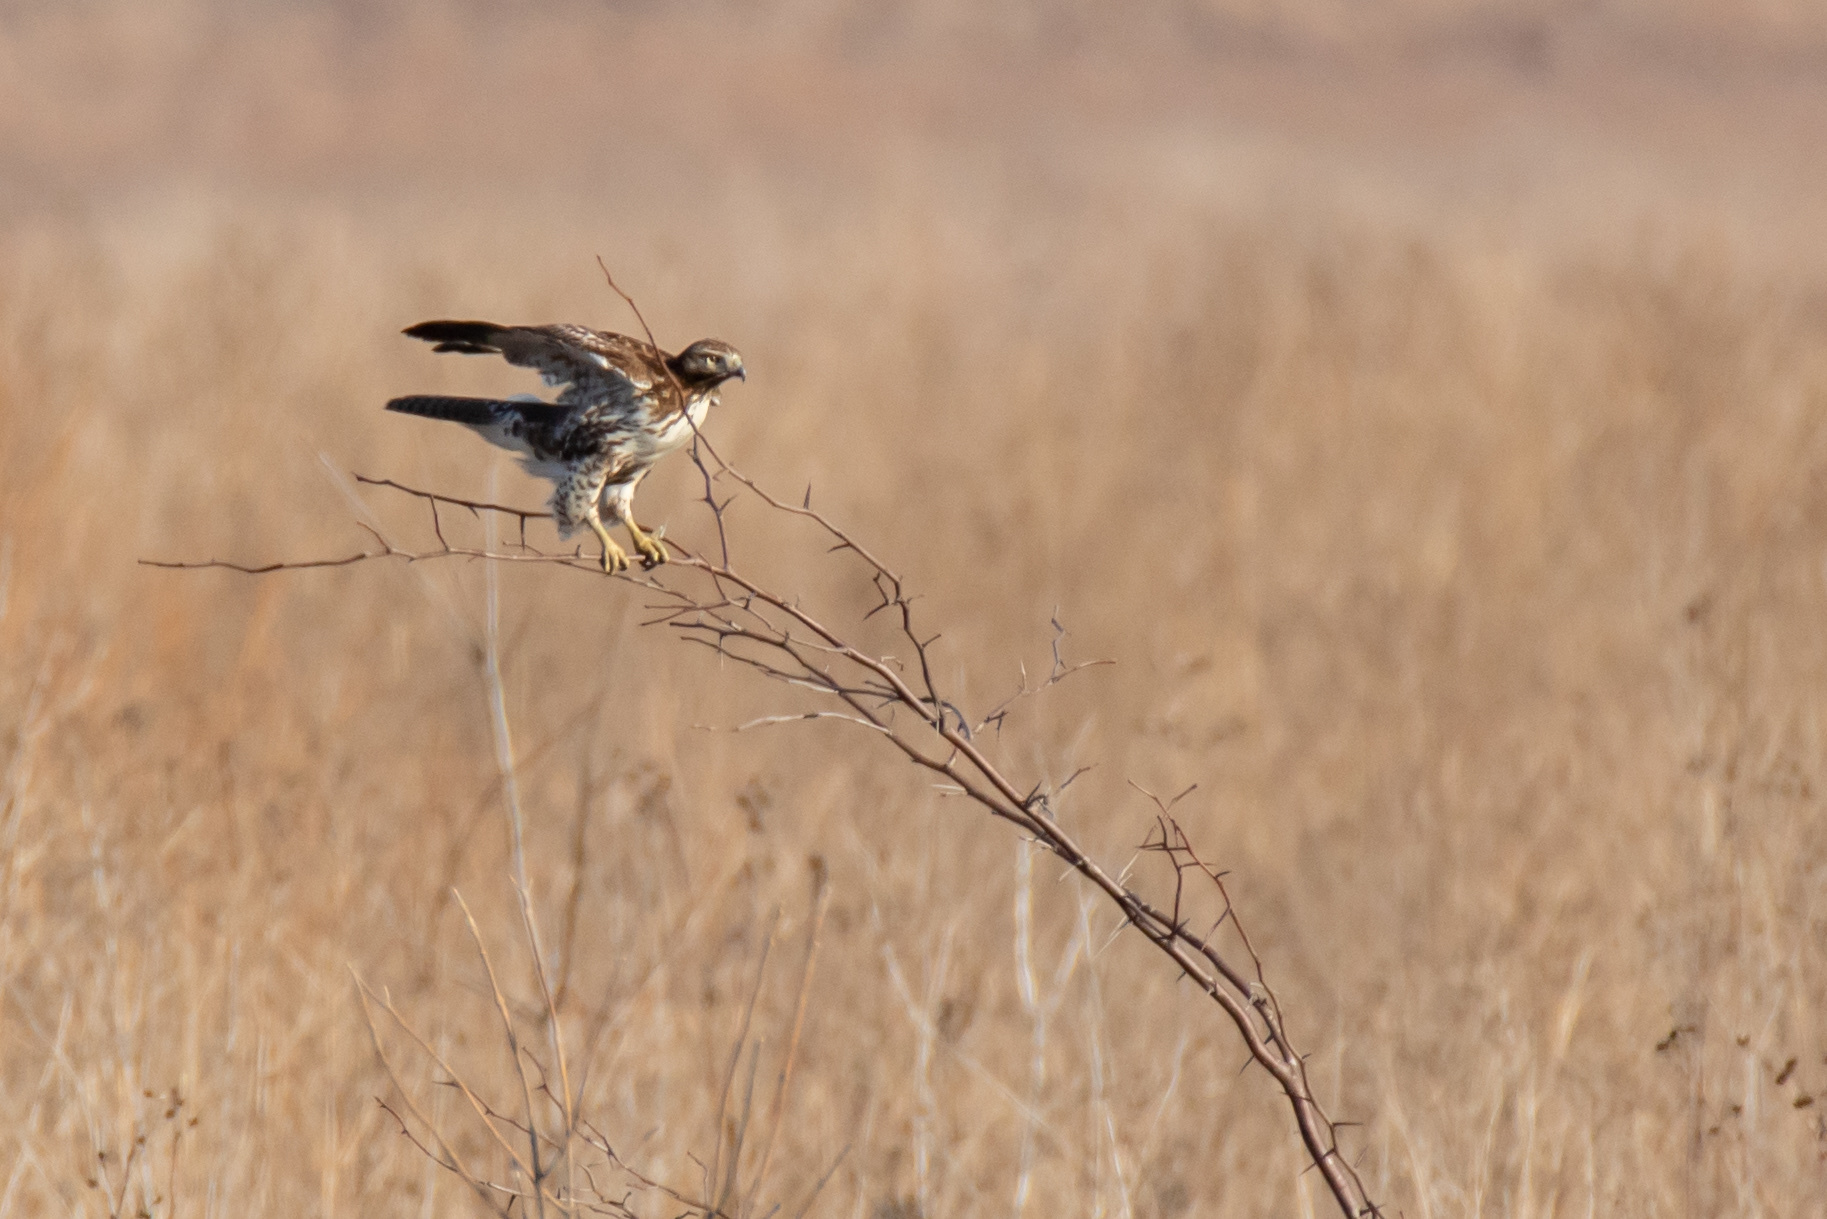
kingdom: Animalia
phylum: Chordata
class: Aves
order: Accipitriformes
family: Accipitridae
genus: Buteo
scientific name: Buteo jamaicensis
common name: Red-tailed hawk
